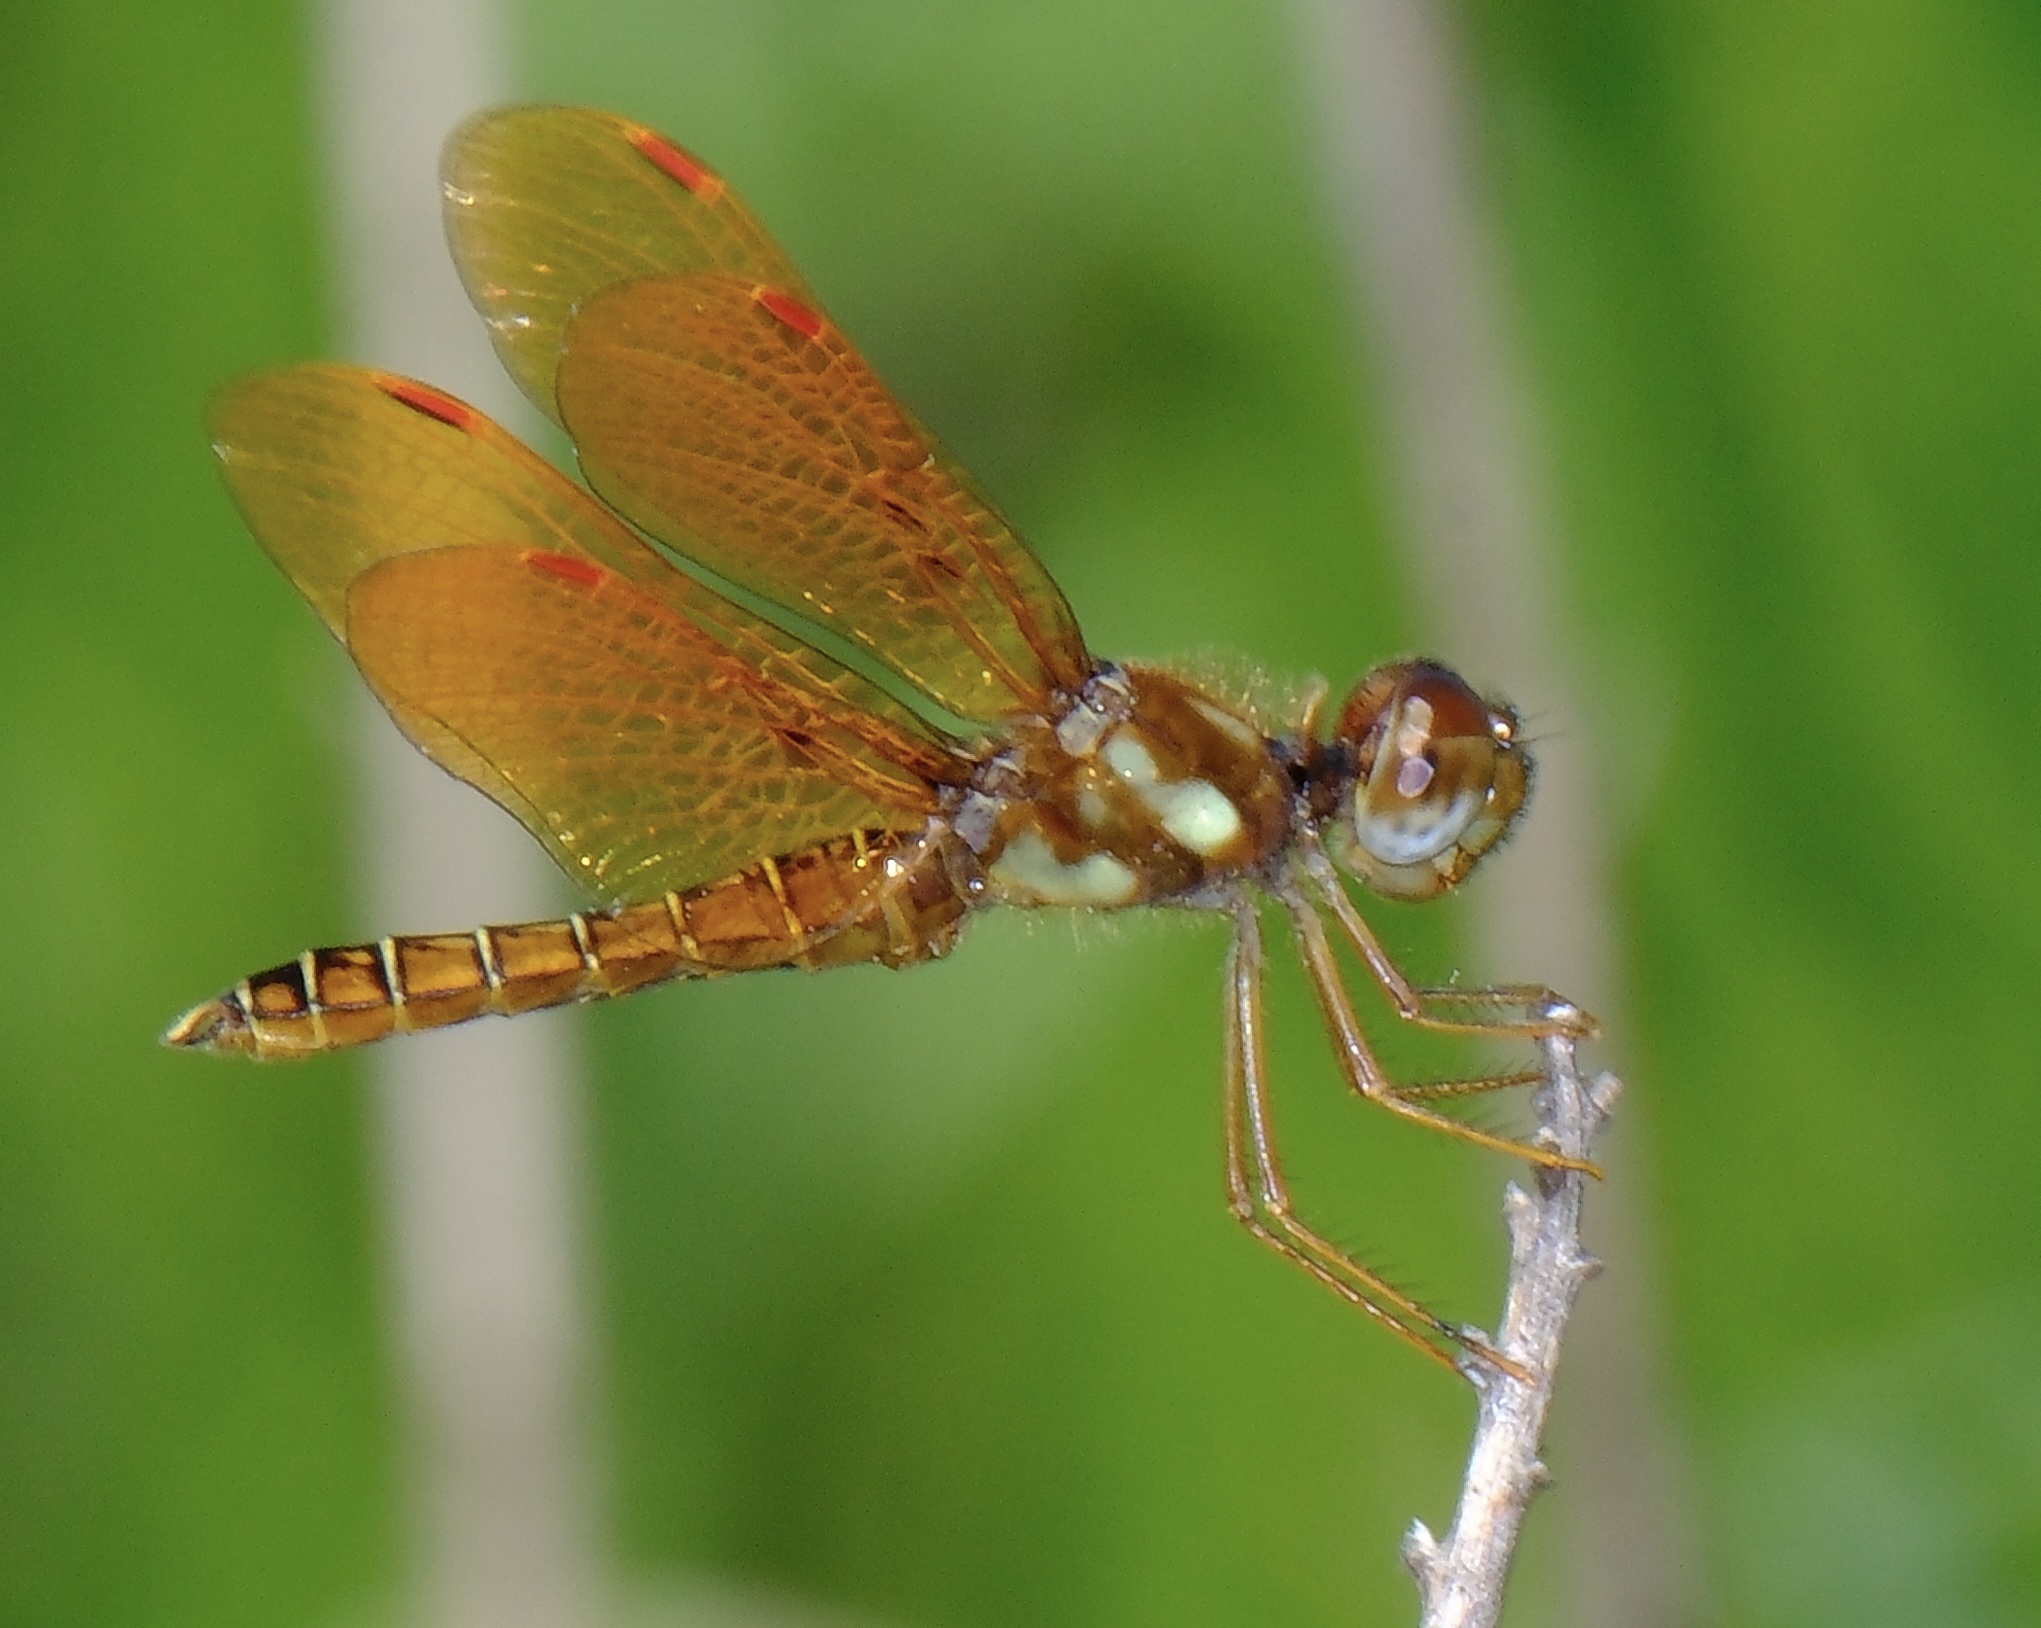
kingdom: Animalia
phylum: Arthropoda
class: Insecta
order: Odonata
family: Libellulidae
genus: Perithemis
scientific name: Perithemis tenera
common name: Eastern amberwing
